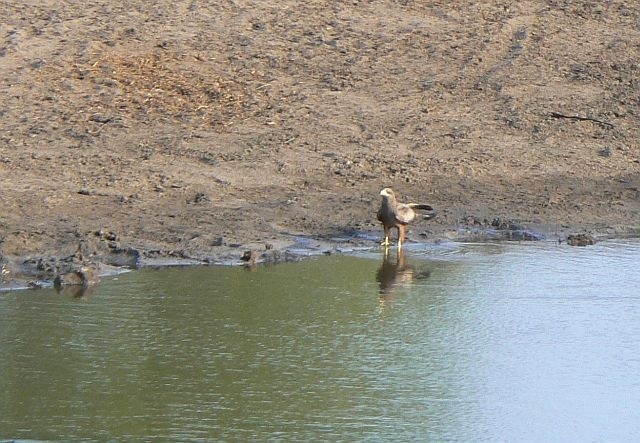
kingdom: Animalia
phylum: Chordata
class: Aves
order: Accipitriformes
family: Accipitridae
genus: Milvus
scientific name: Milvus migrans
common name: Black kite
